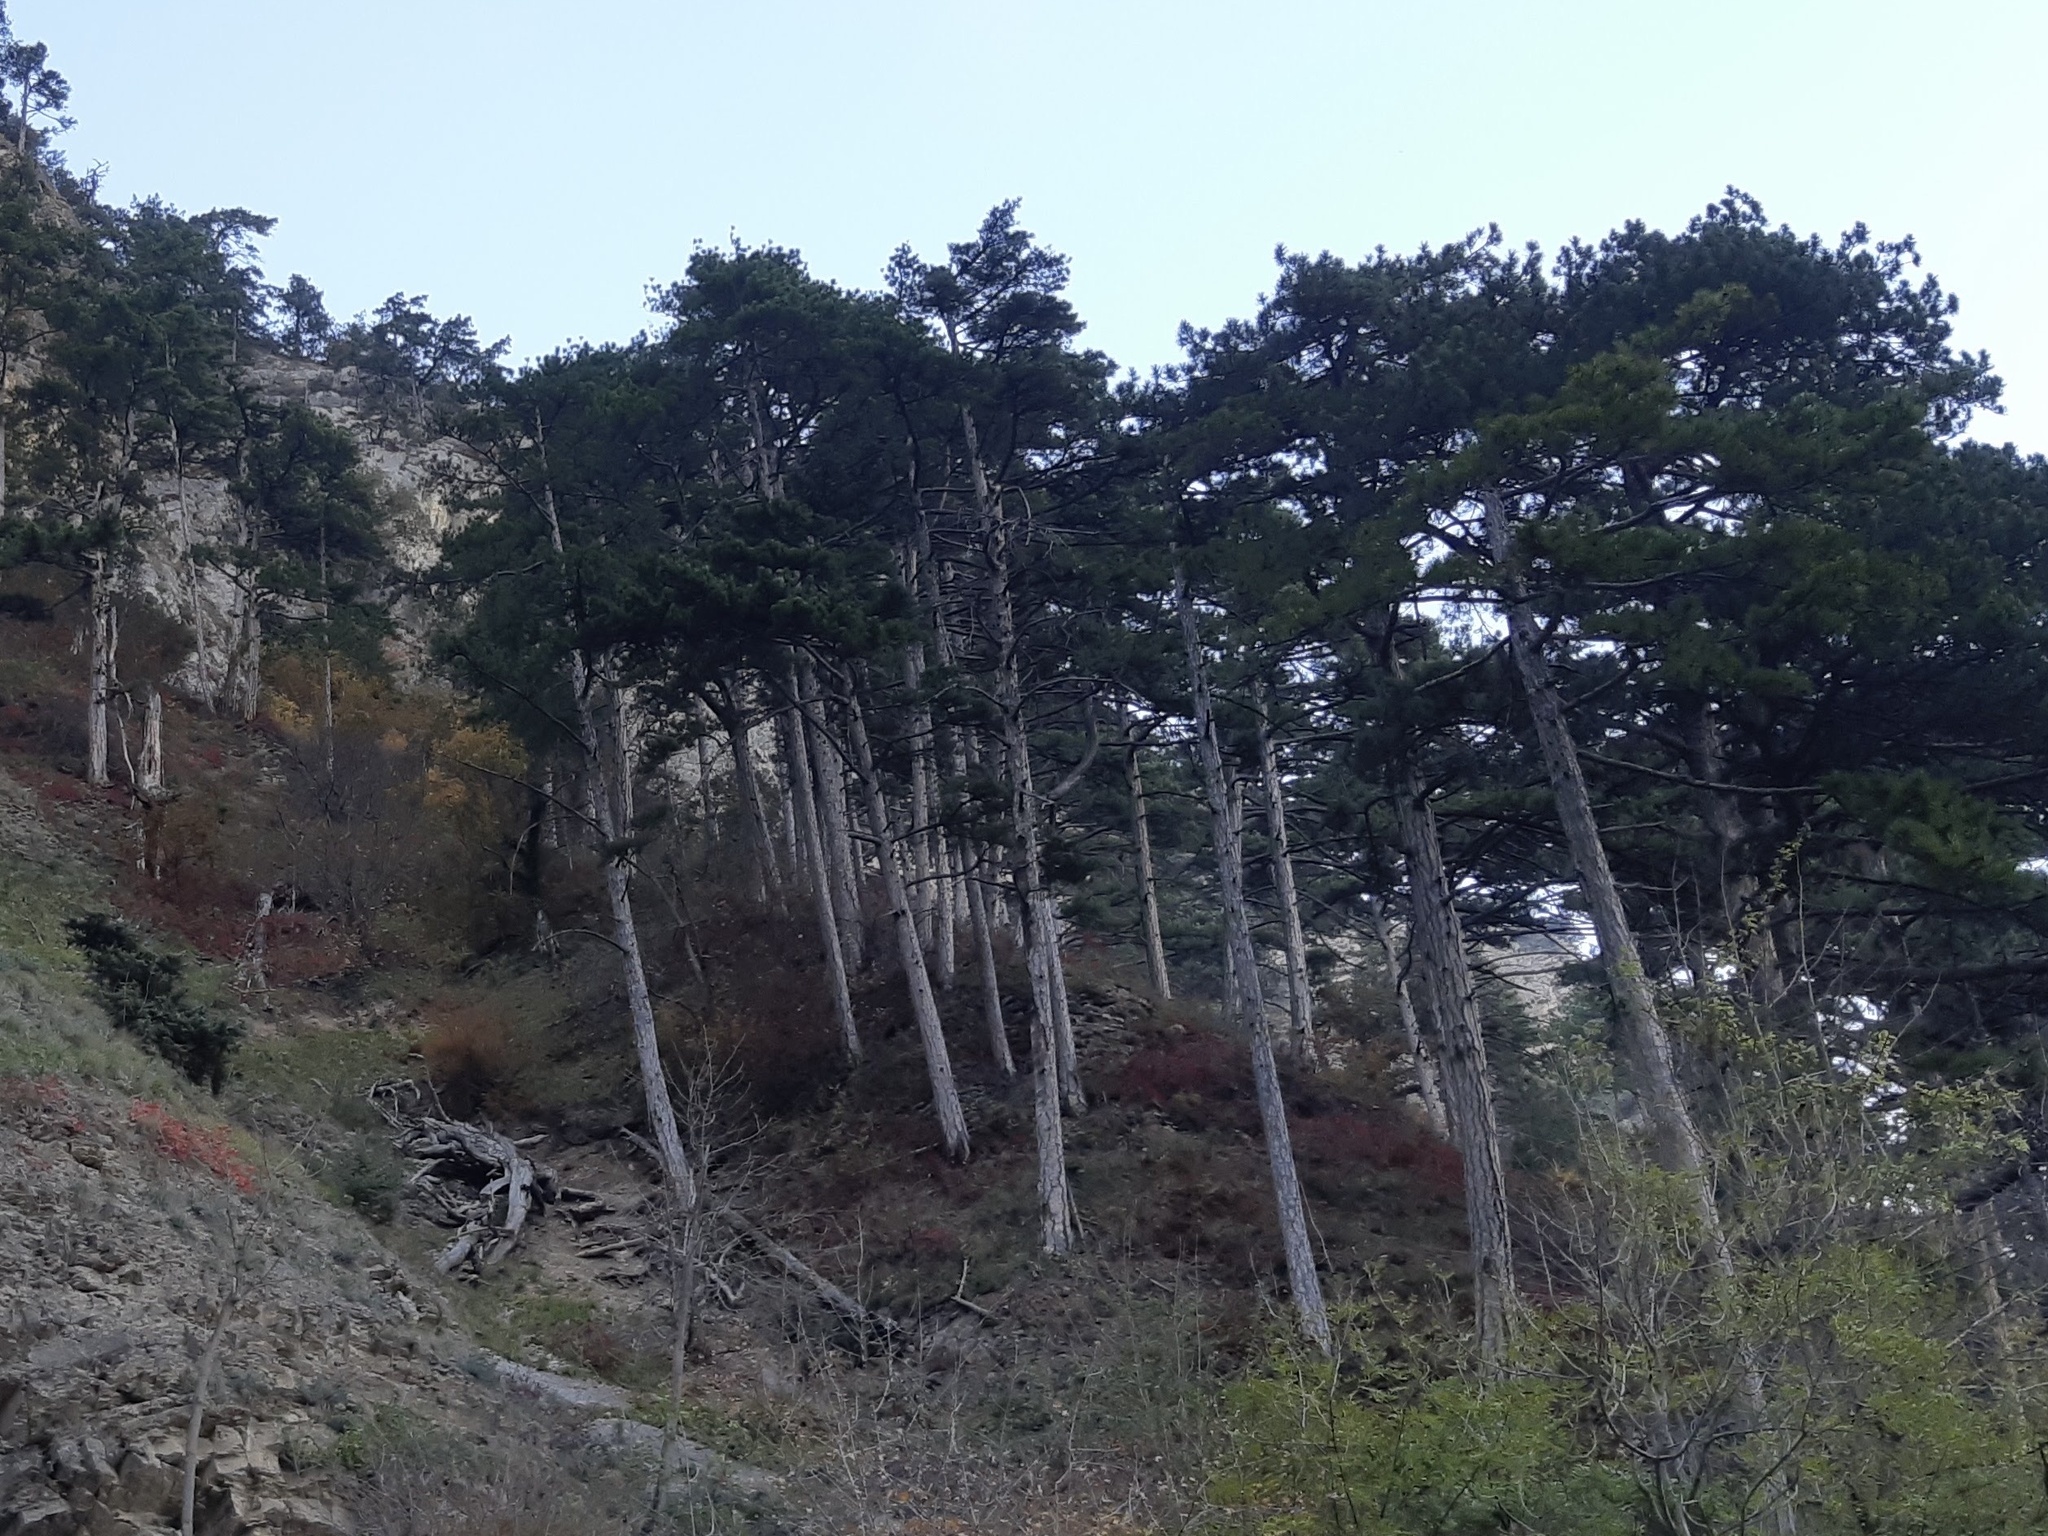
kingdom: Plantae
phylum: Tracheophyta
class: Pinopsida
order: Pinales
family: Pinaceae
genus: Pinus
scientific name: Pinus nigra
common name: Austrian pine
